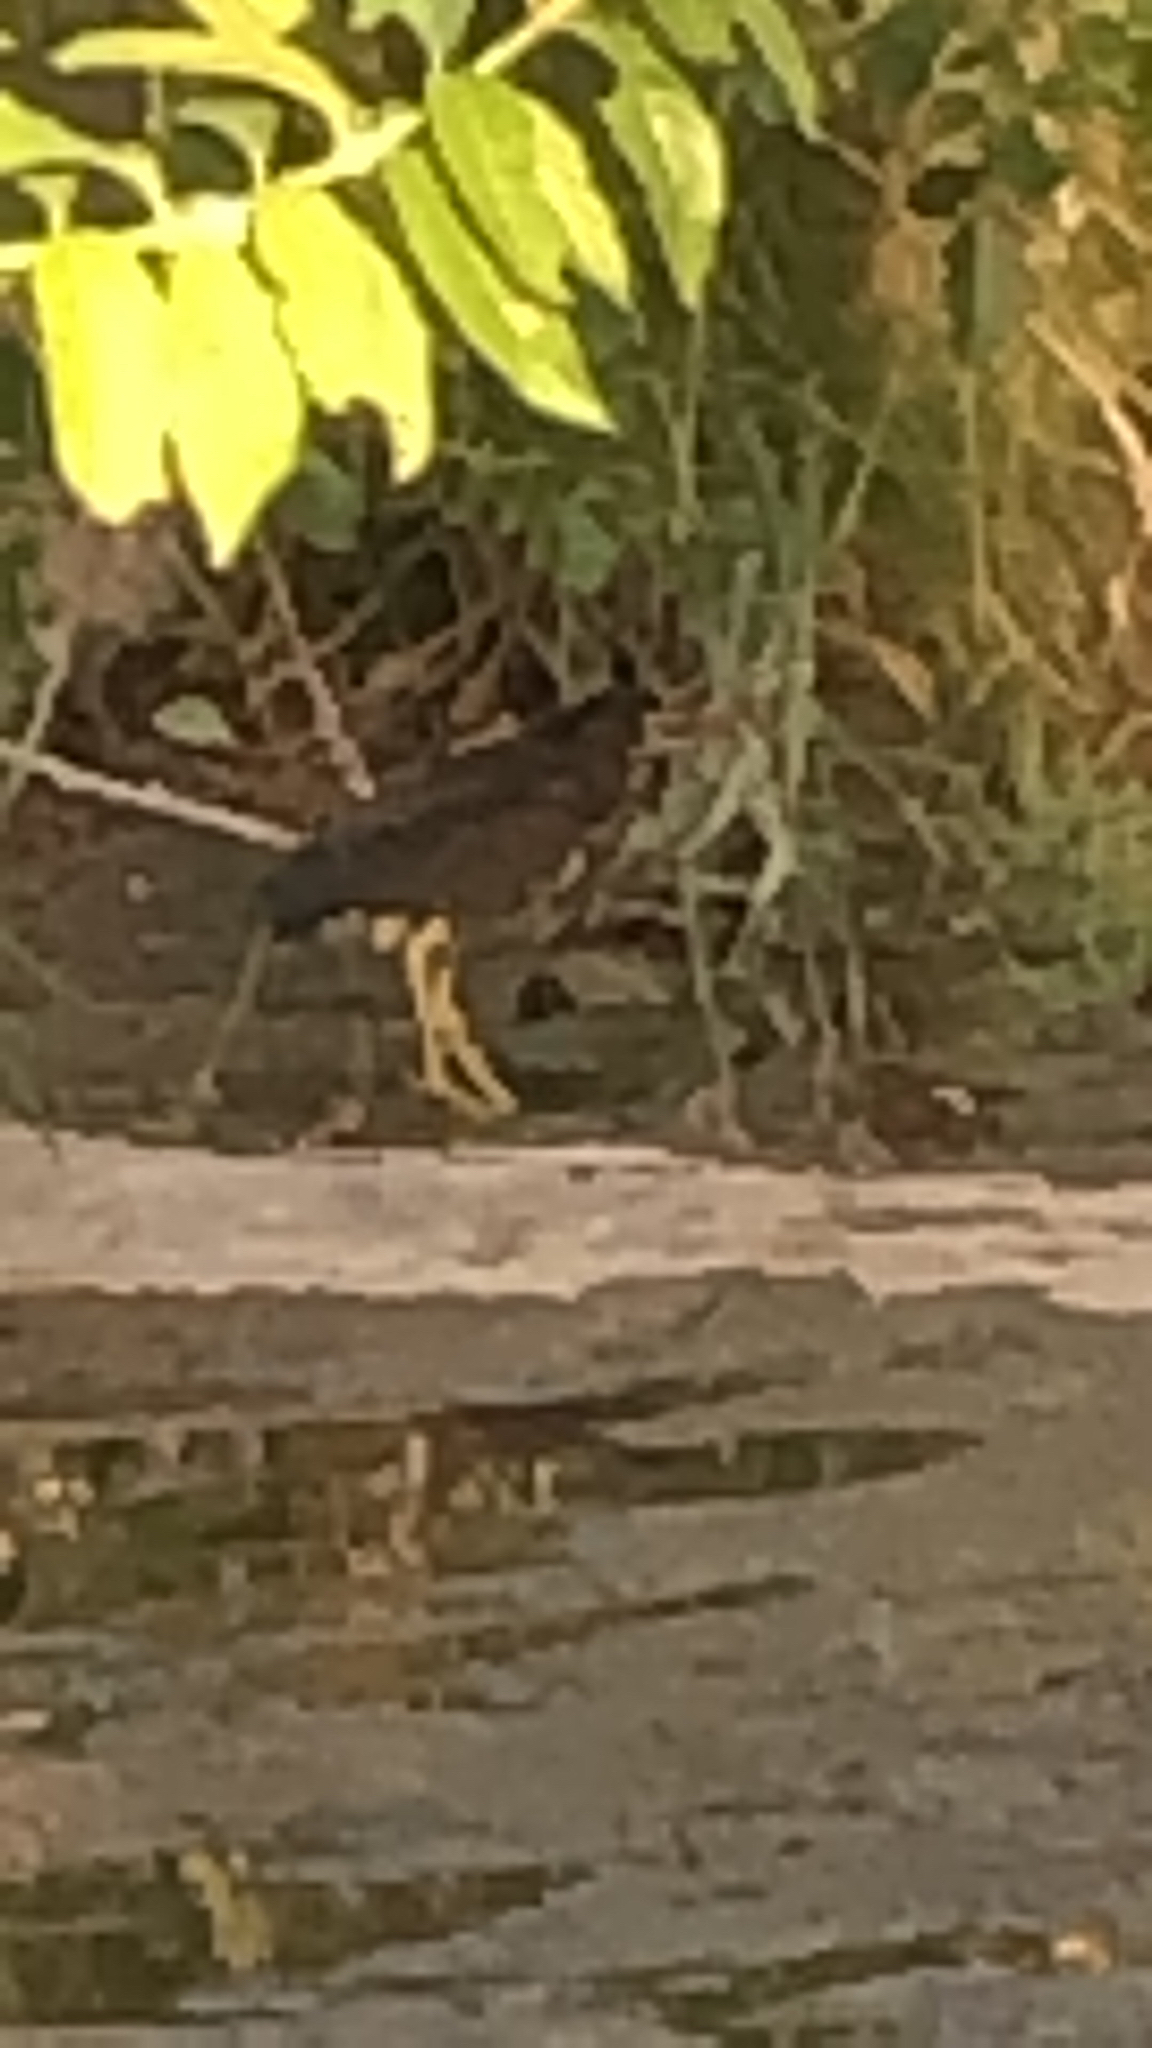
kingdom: Animalia
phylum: Chordata
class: Aves
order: Pelecaniformes
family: Ardeidae
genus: Butorides
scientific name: Butorides virescens
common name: Green heron
